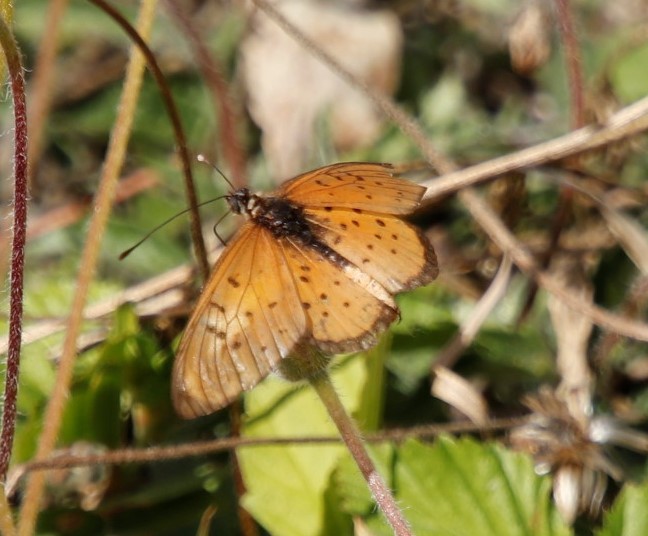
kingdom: Animalia
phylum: Arthropoda
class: Insecta
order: Lepidoptera
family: Nymphalidae
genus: Stephenia
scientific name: Stephenia
